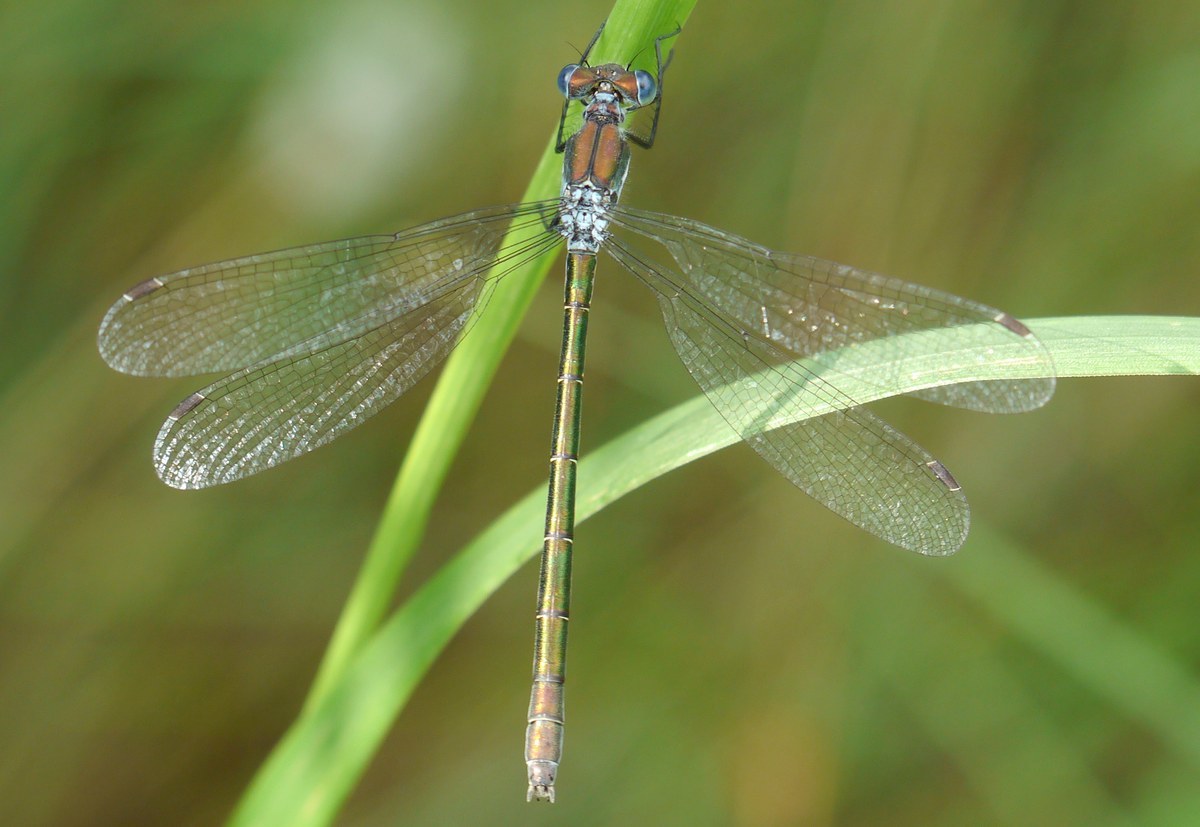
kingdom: Animalia
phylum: Arthropoda
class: Insecta
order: Odonata
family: Lestidae
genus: Lestes
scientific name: Lestes dryas
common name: Scarce emerald damselfly
